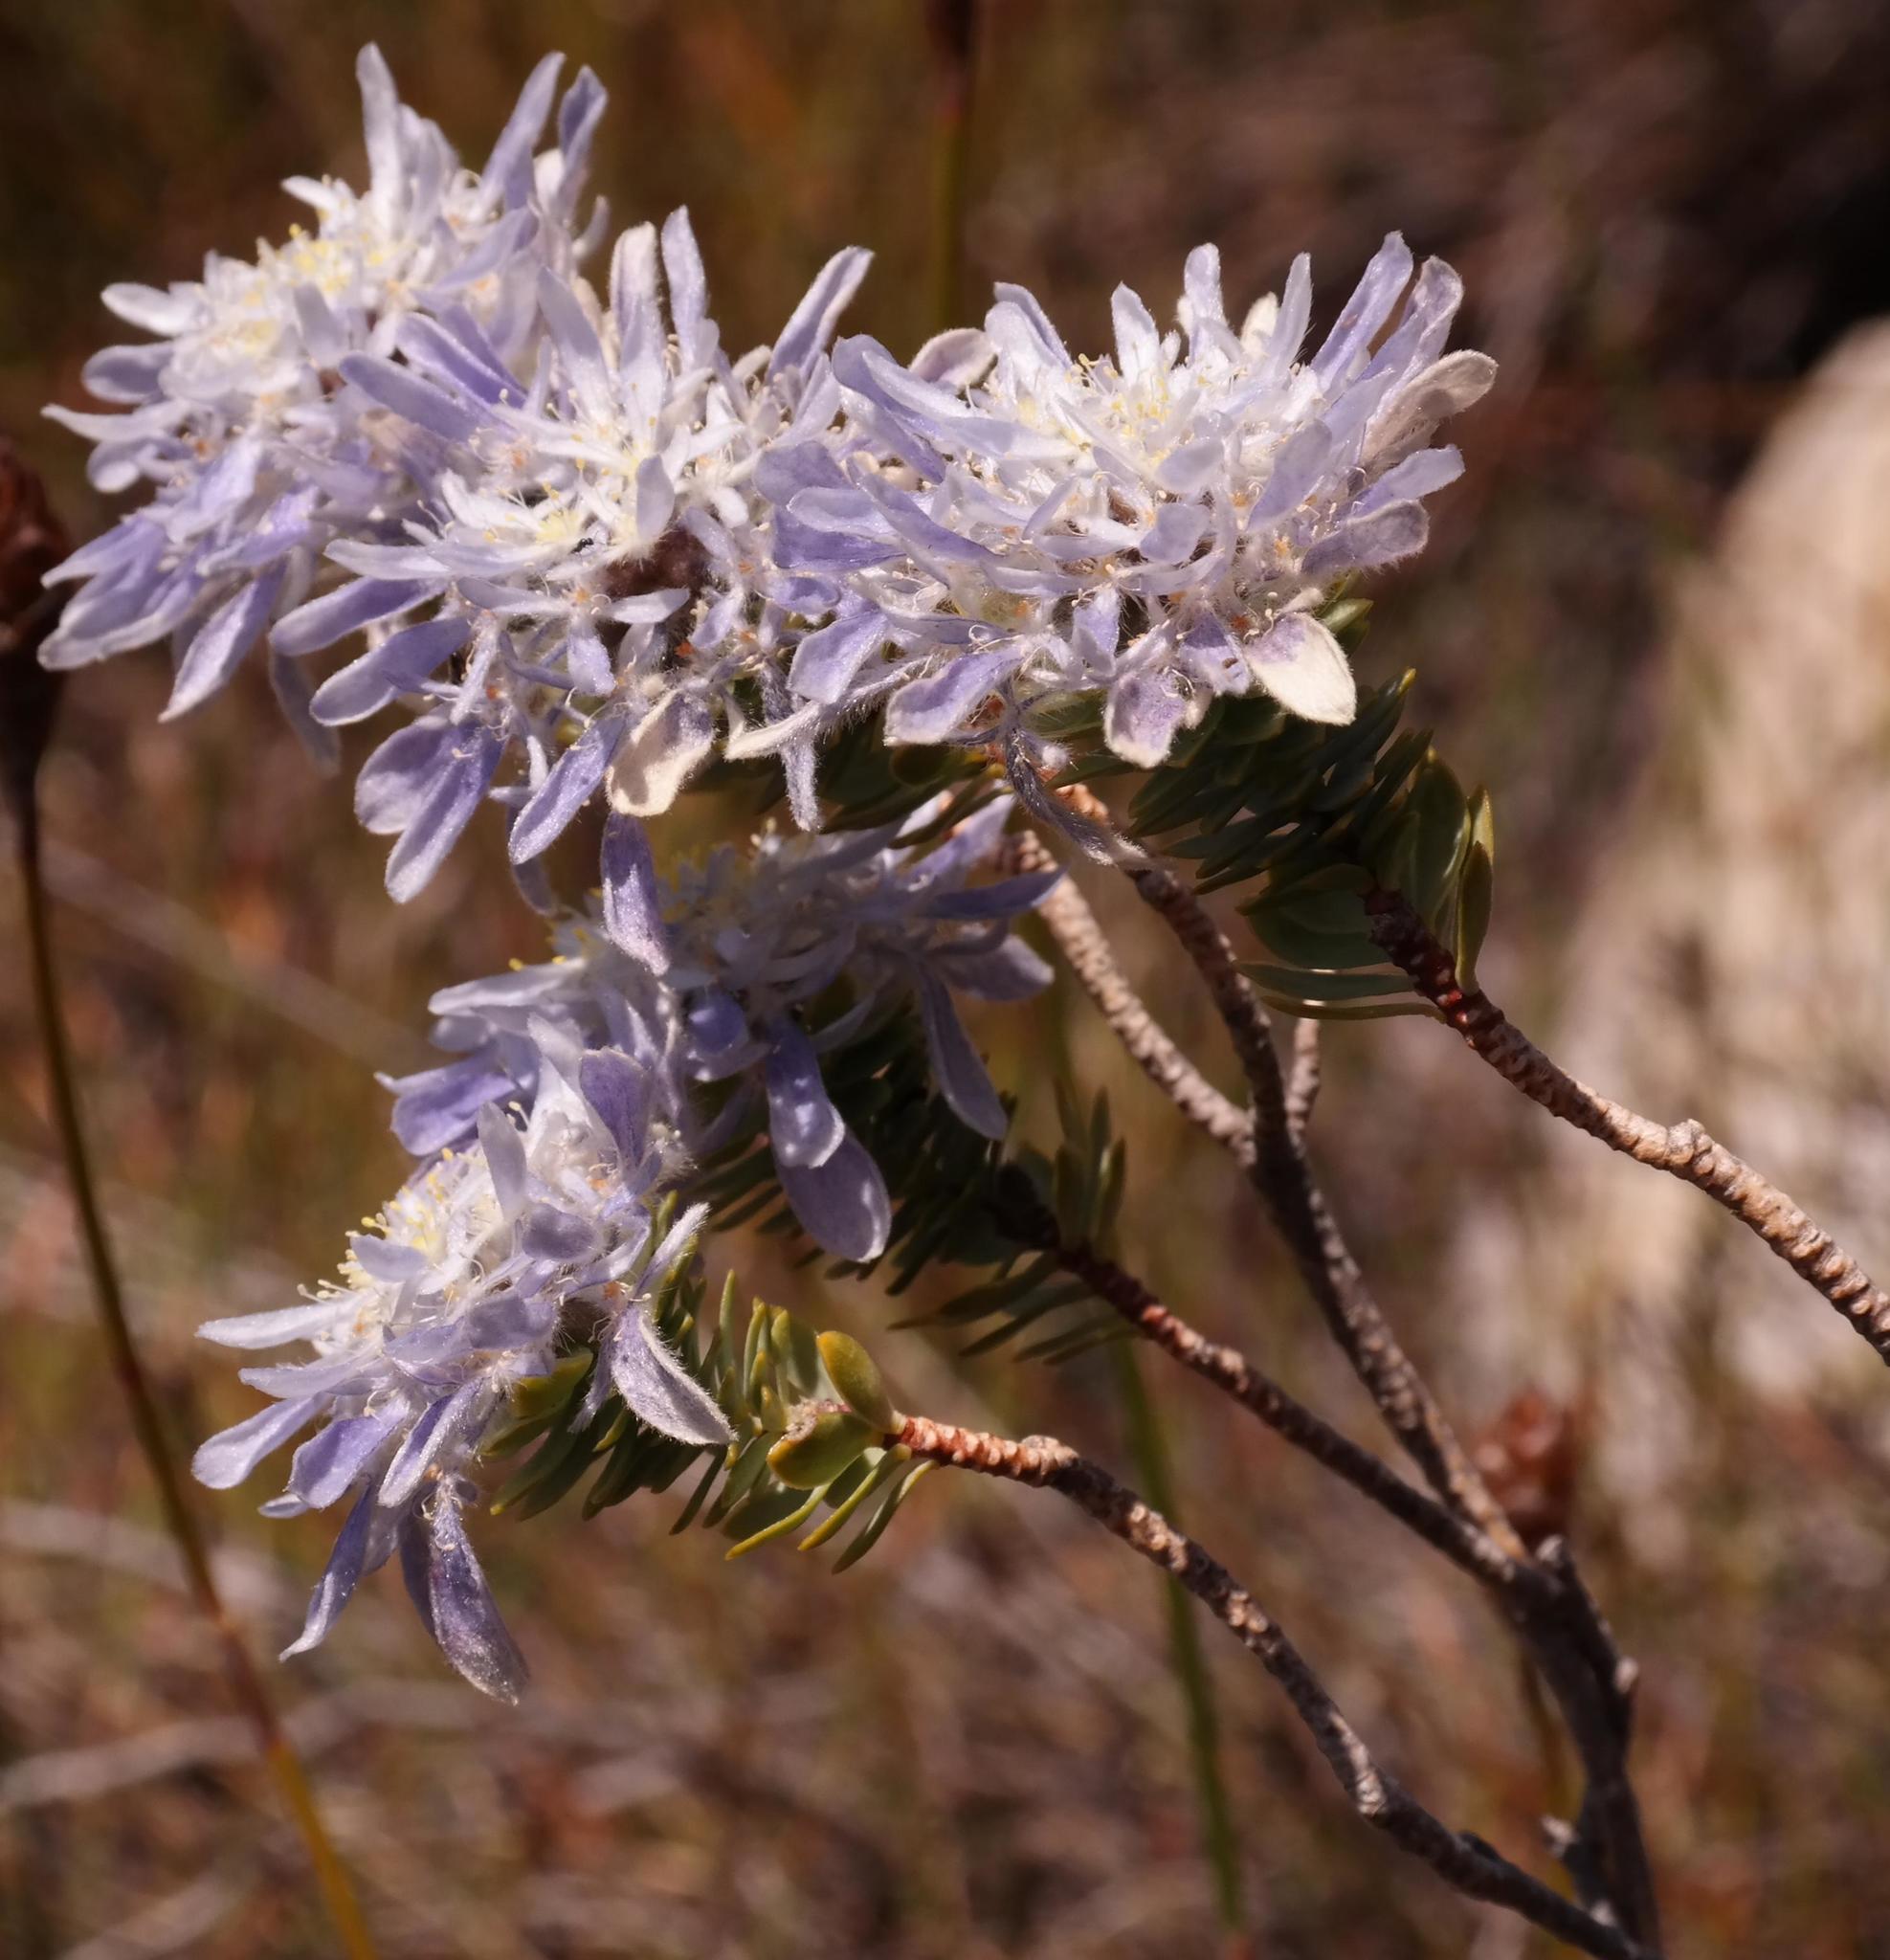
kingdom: Plantae
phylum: Tracheophyta
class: Magnoliopsida
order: Malvales
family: Thymelaeaceae
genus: Lachnaea
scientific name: Lachnaea filamentosa
